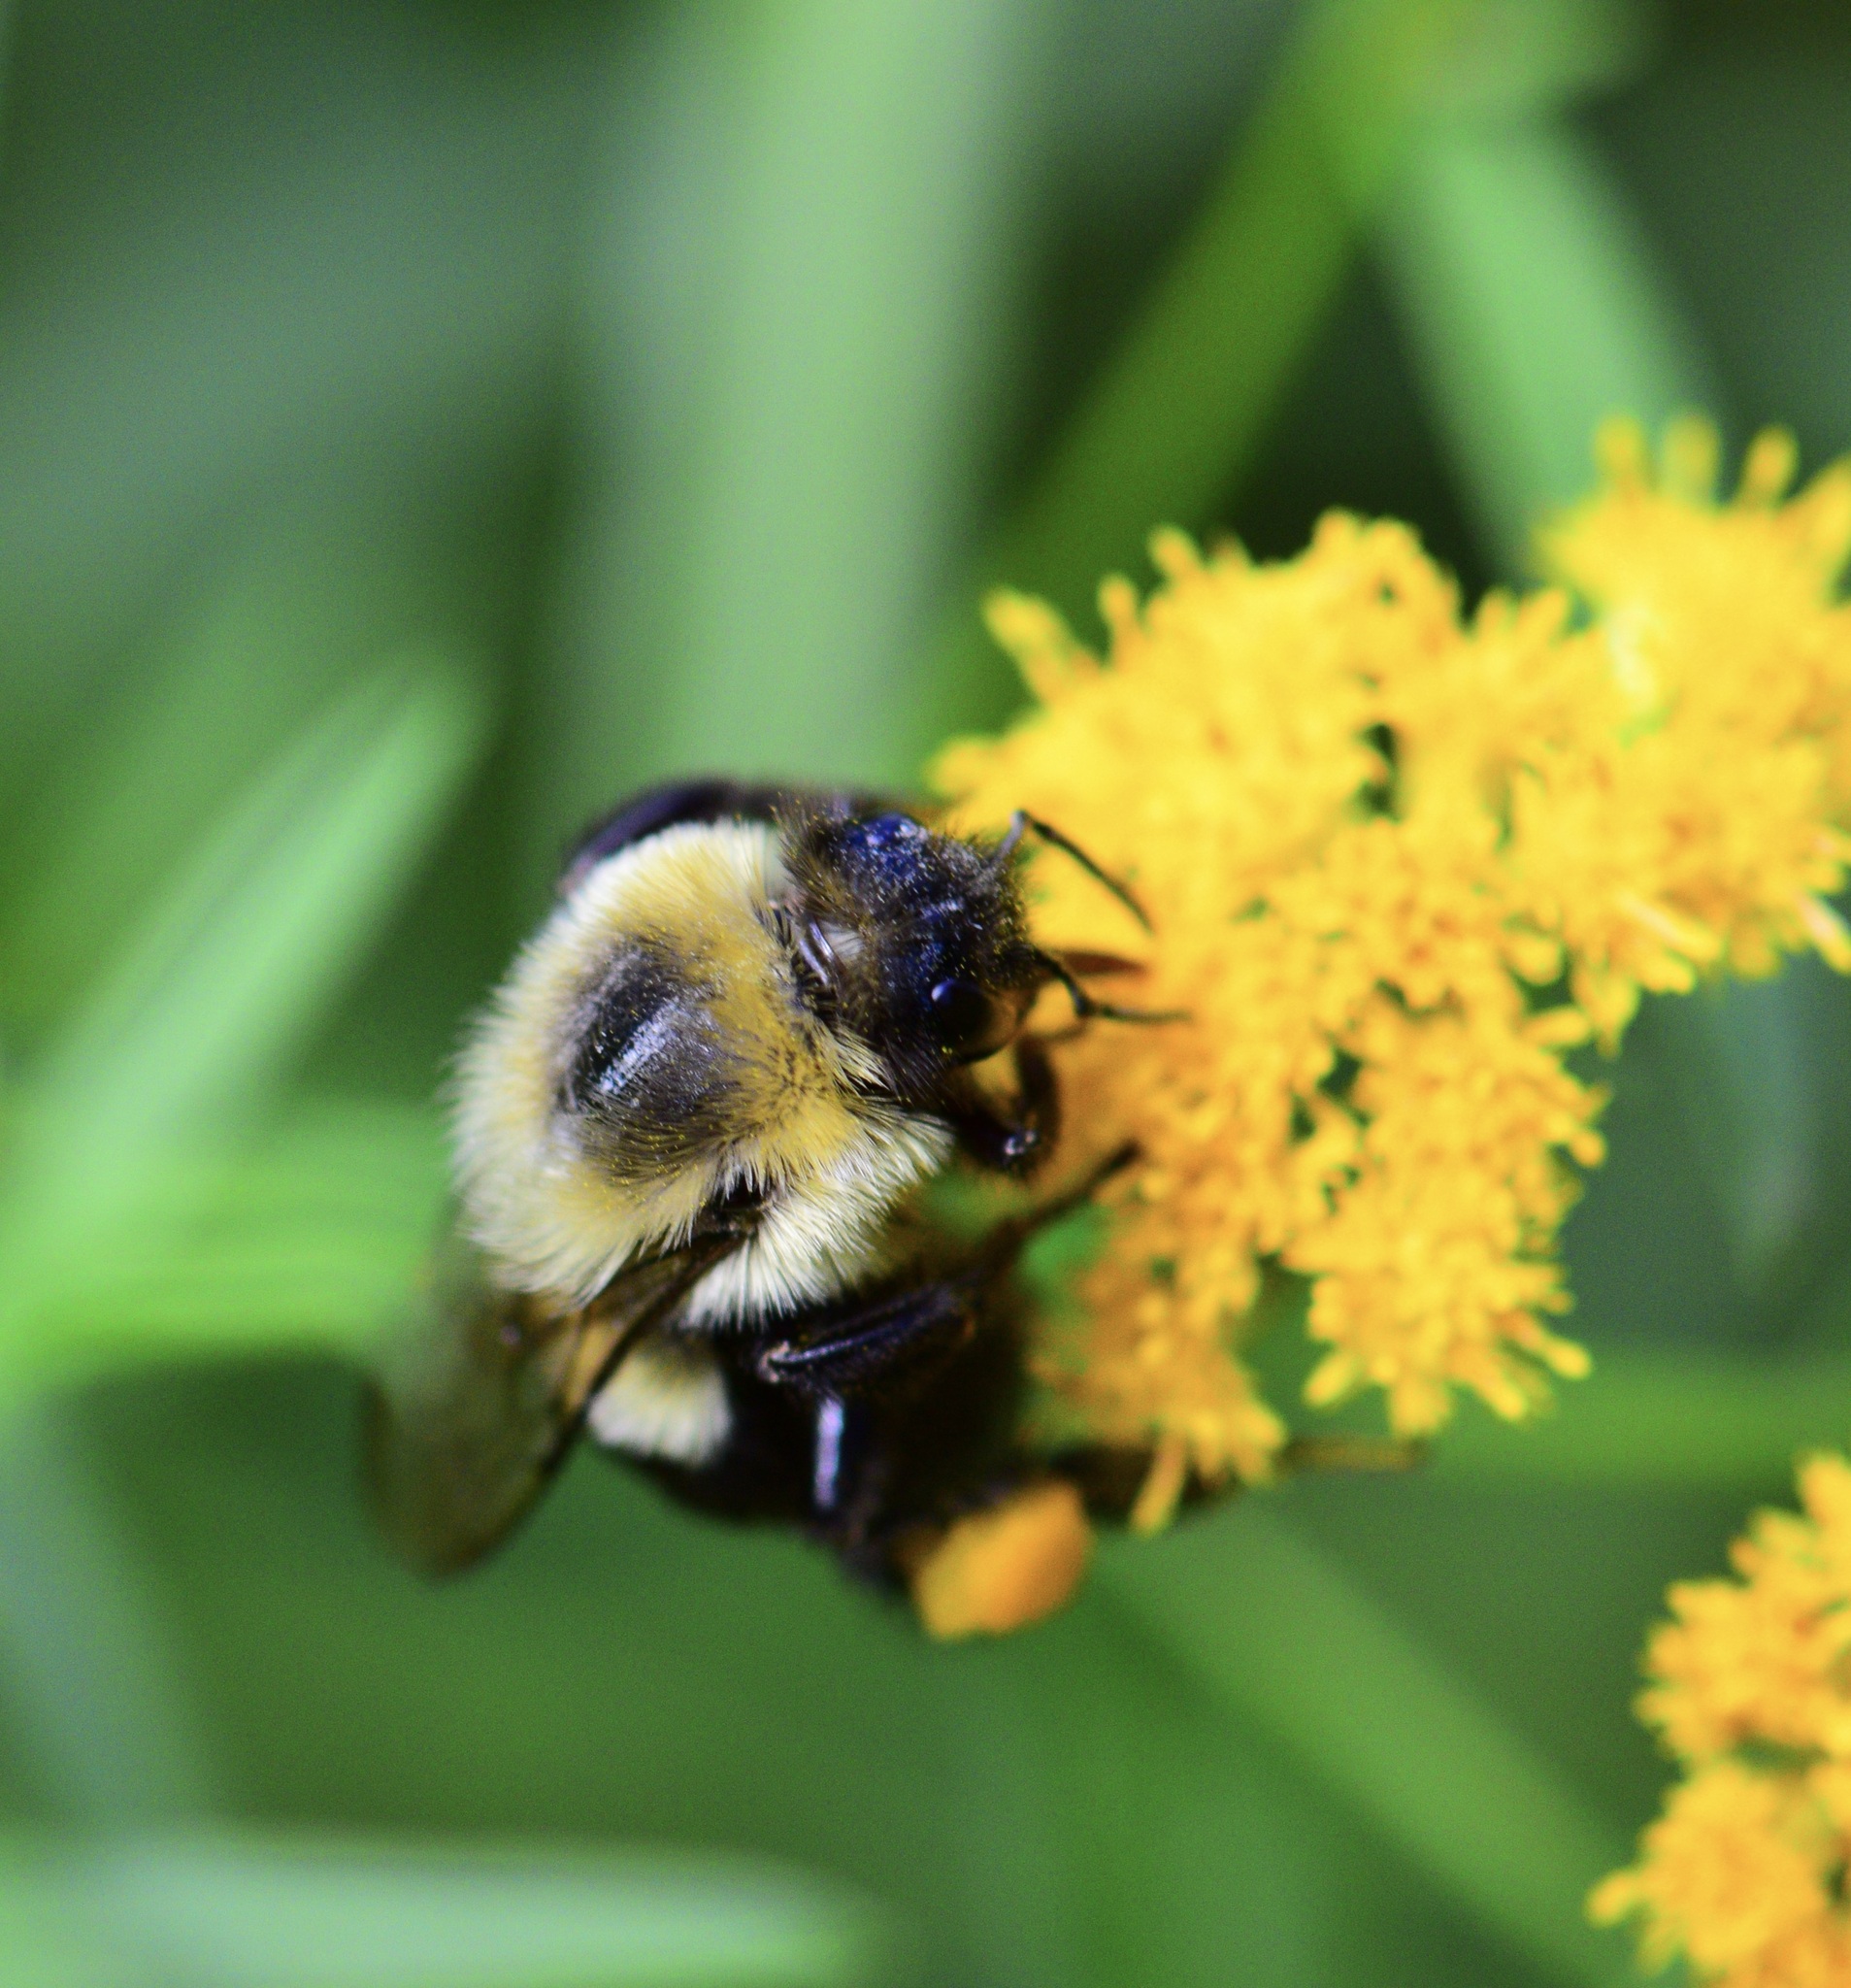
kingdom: Animalia
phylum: Arthropoda
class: Insecta
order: Hymenoptera
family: Apidae
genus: Bombus
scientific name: Bombus impatiens
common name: Common eastern bumble bee
